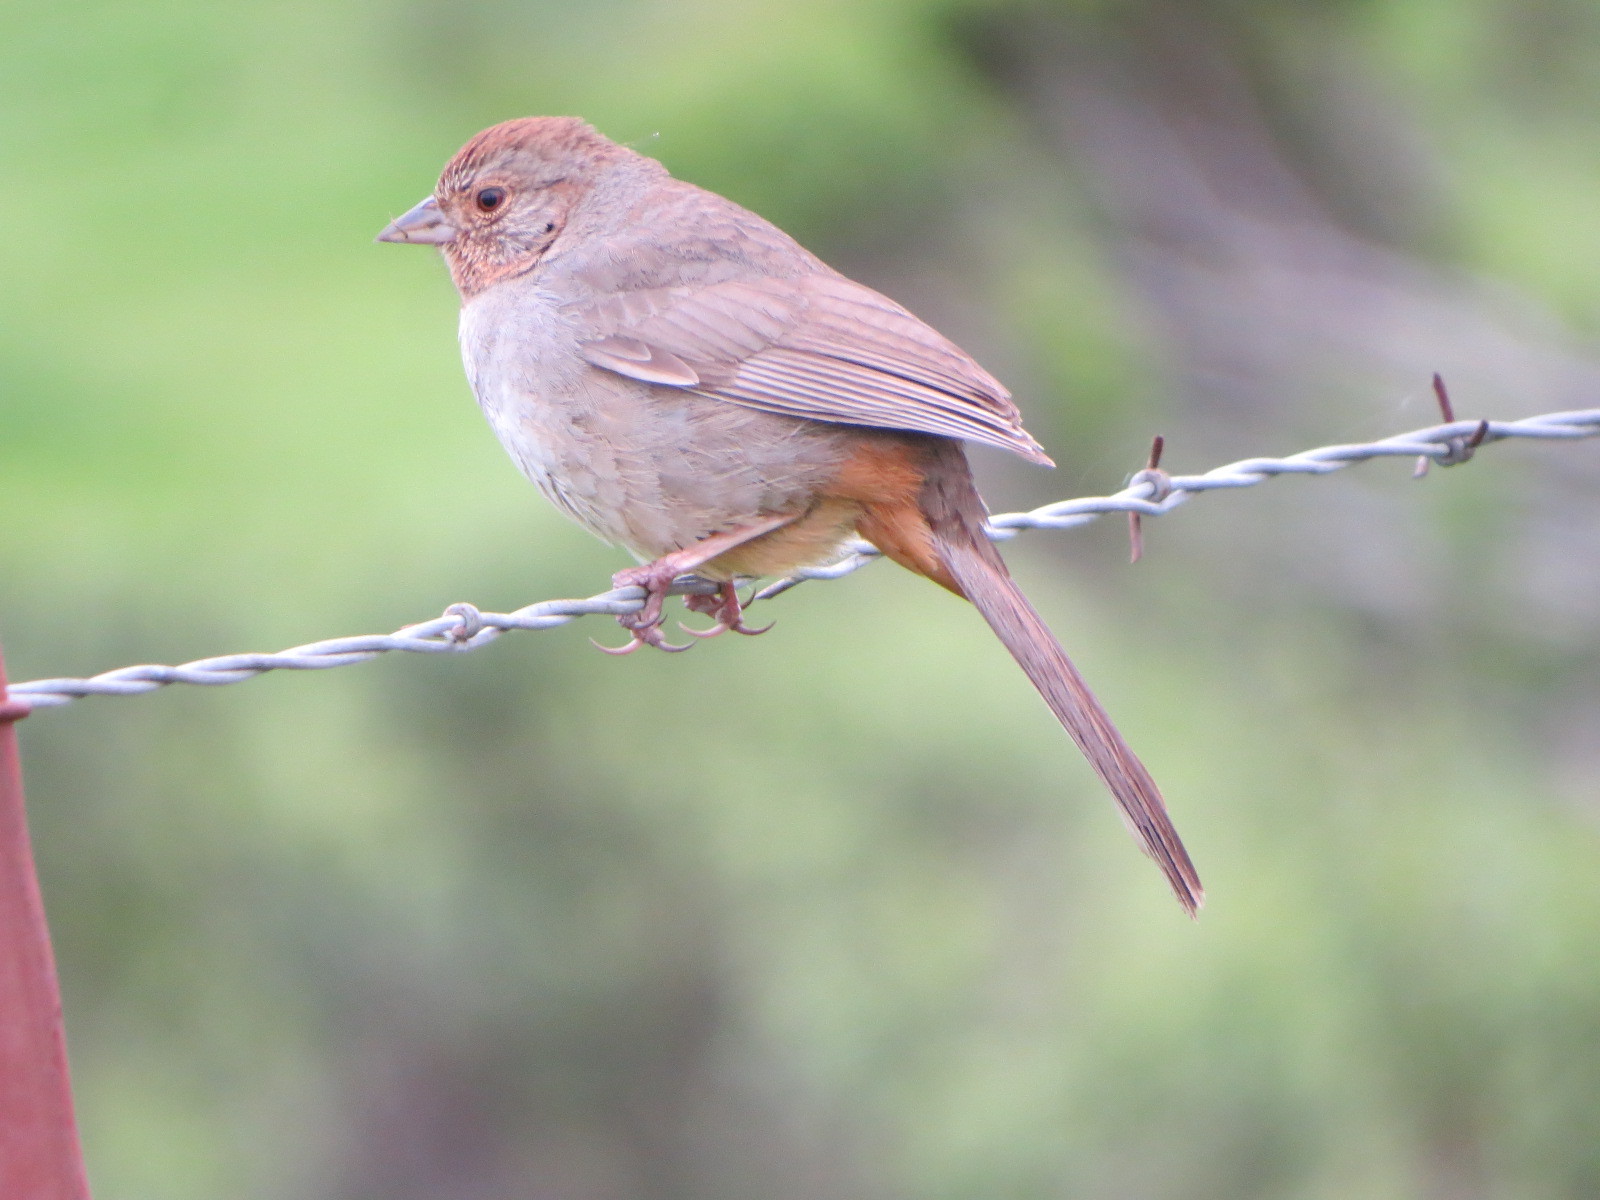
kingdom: Animalia
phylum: Chordata
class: Aves
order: Passeriformes
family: Passerellidae
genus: Melozone
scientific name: Melozone crissalis
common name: California towhee
